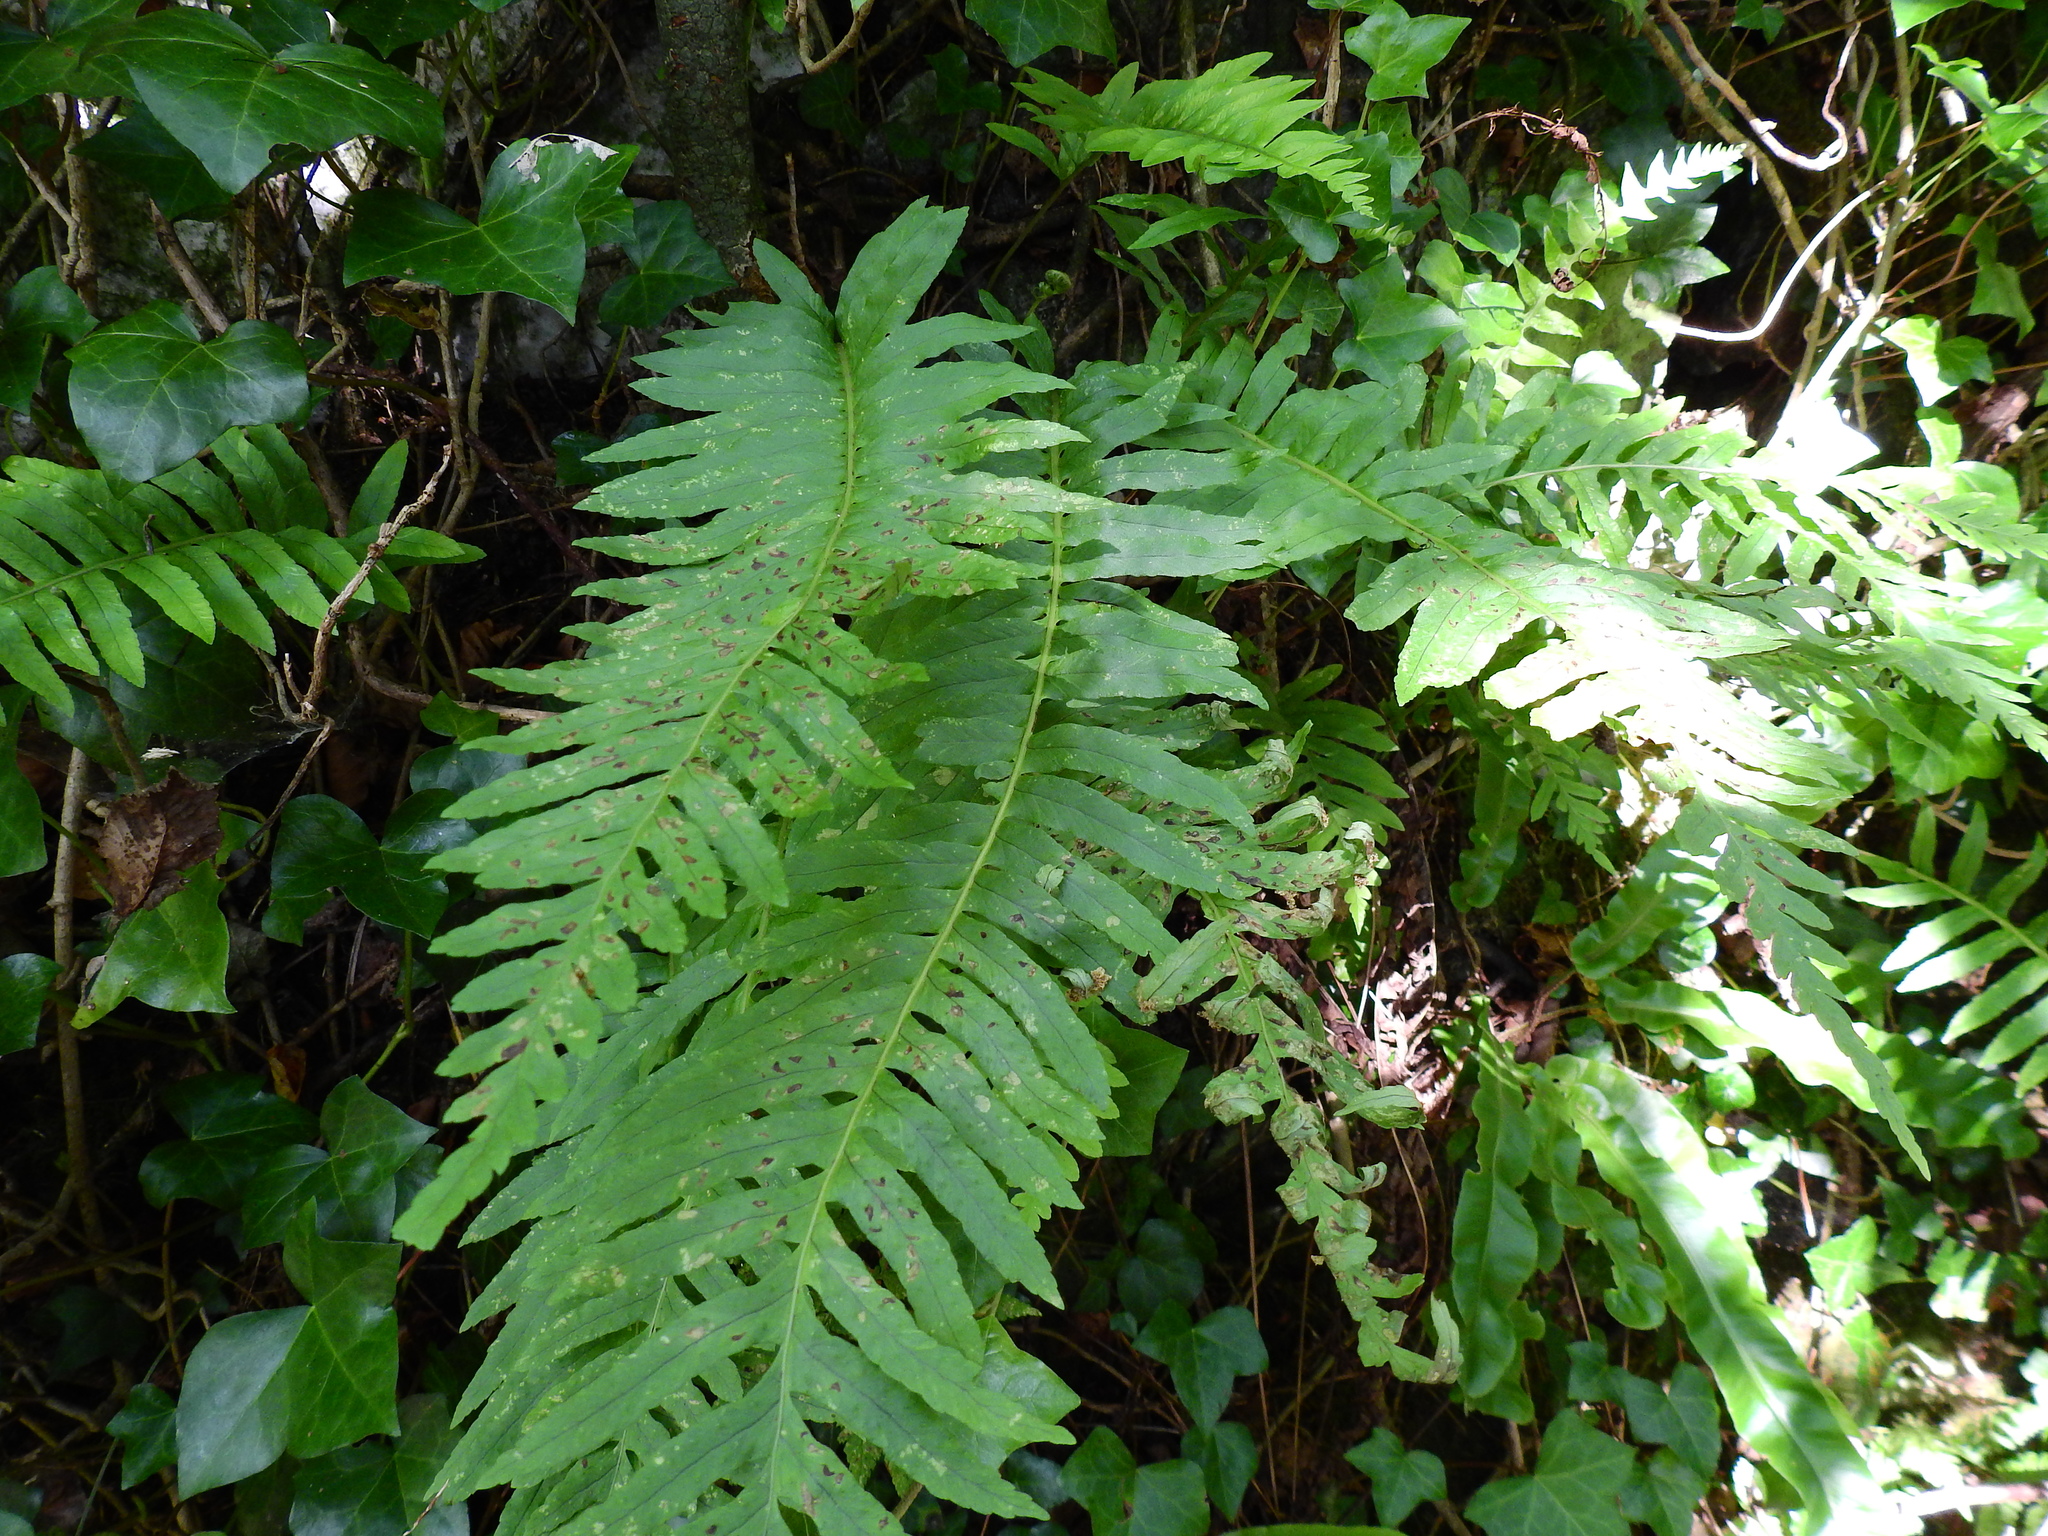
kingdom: Animalia
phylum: Arthropoda
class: Insecta
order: Lepidoptera
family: Tineidae
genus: Psychoides
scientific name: Psychoides filicivora
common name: Fern smut
